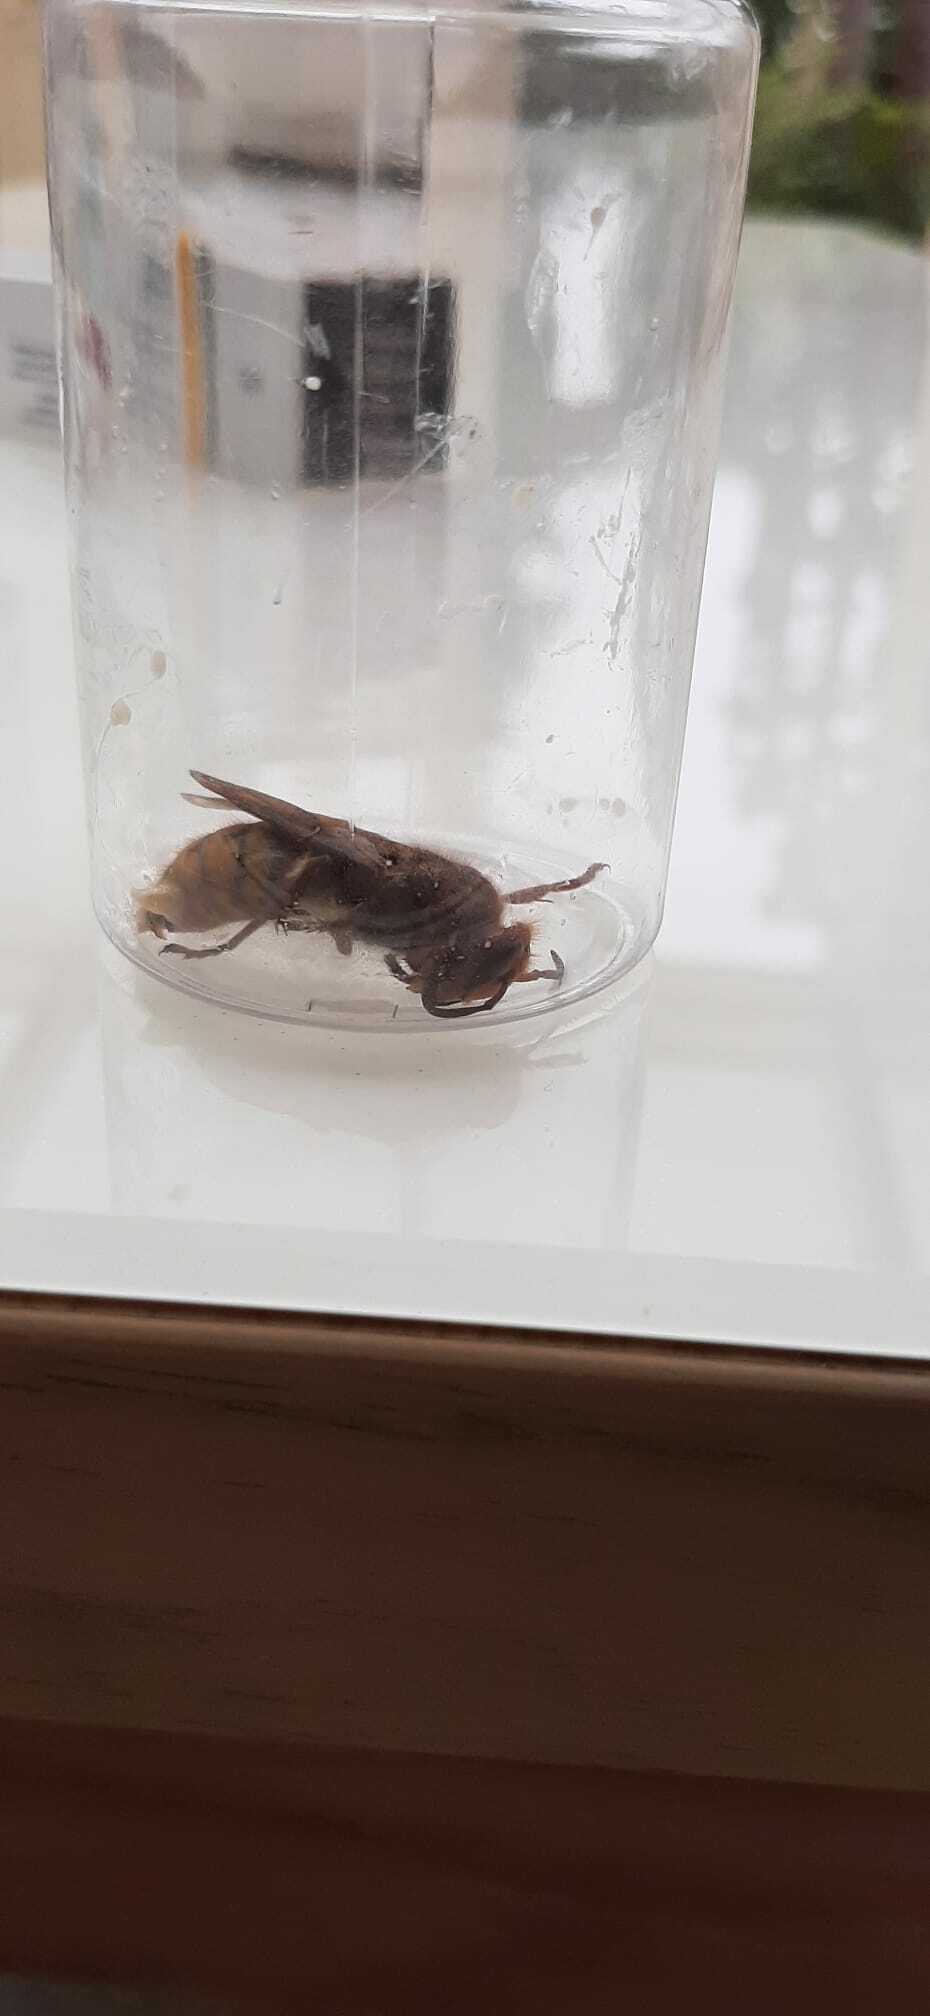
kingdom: Animalia
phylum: Arthropoda
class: Insecta
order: Hymenoptera
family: Vespidae
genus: Vespa
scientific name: Vespa crabro
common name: Hornet
